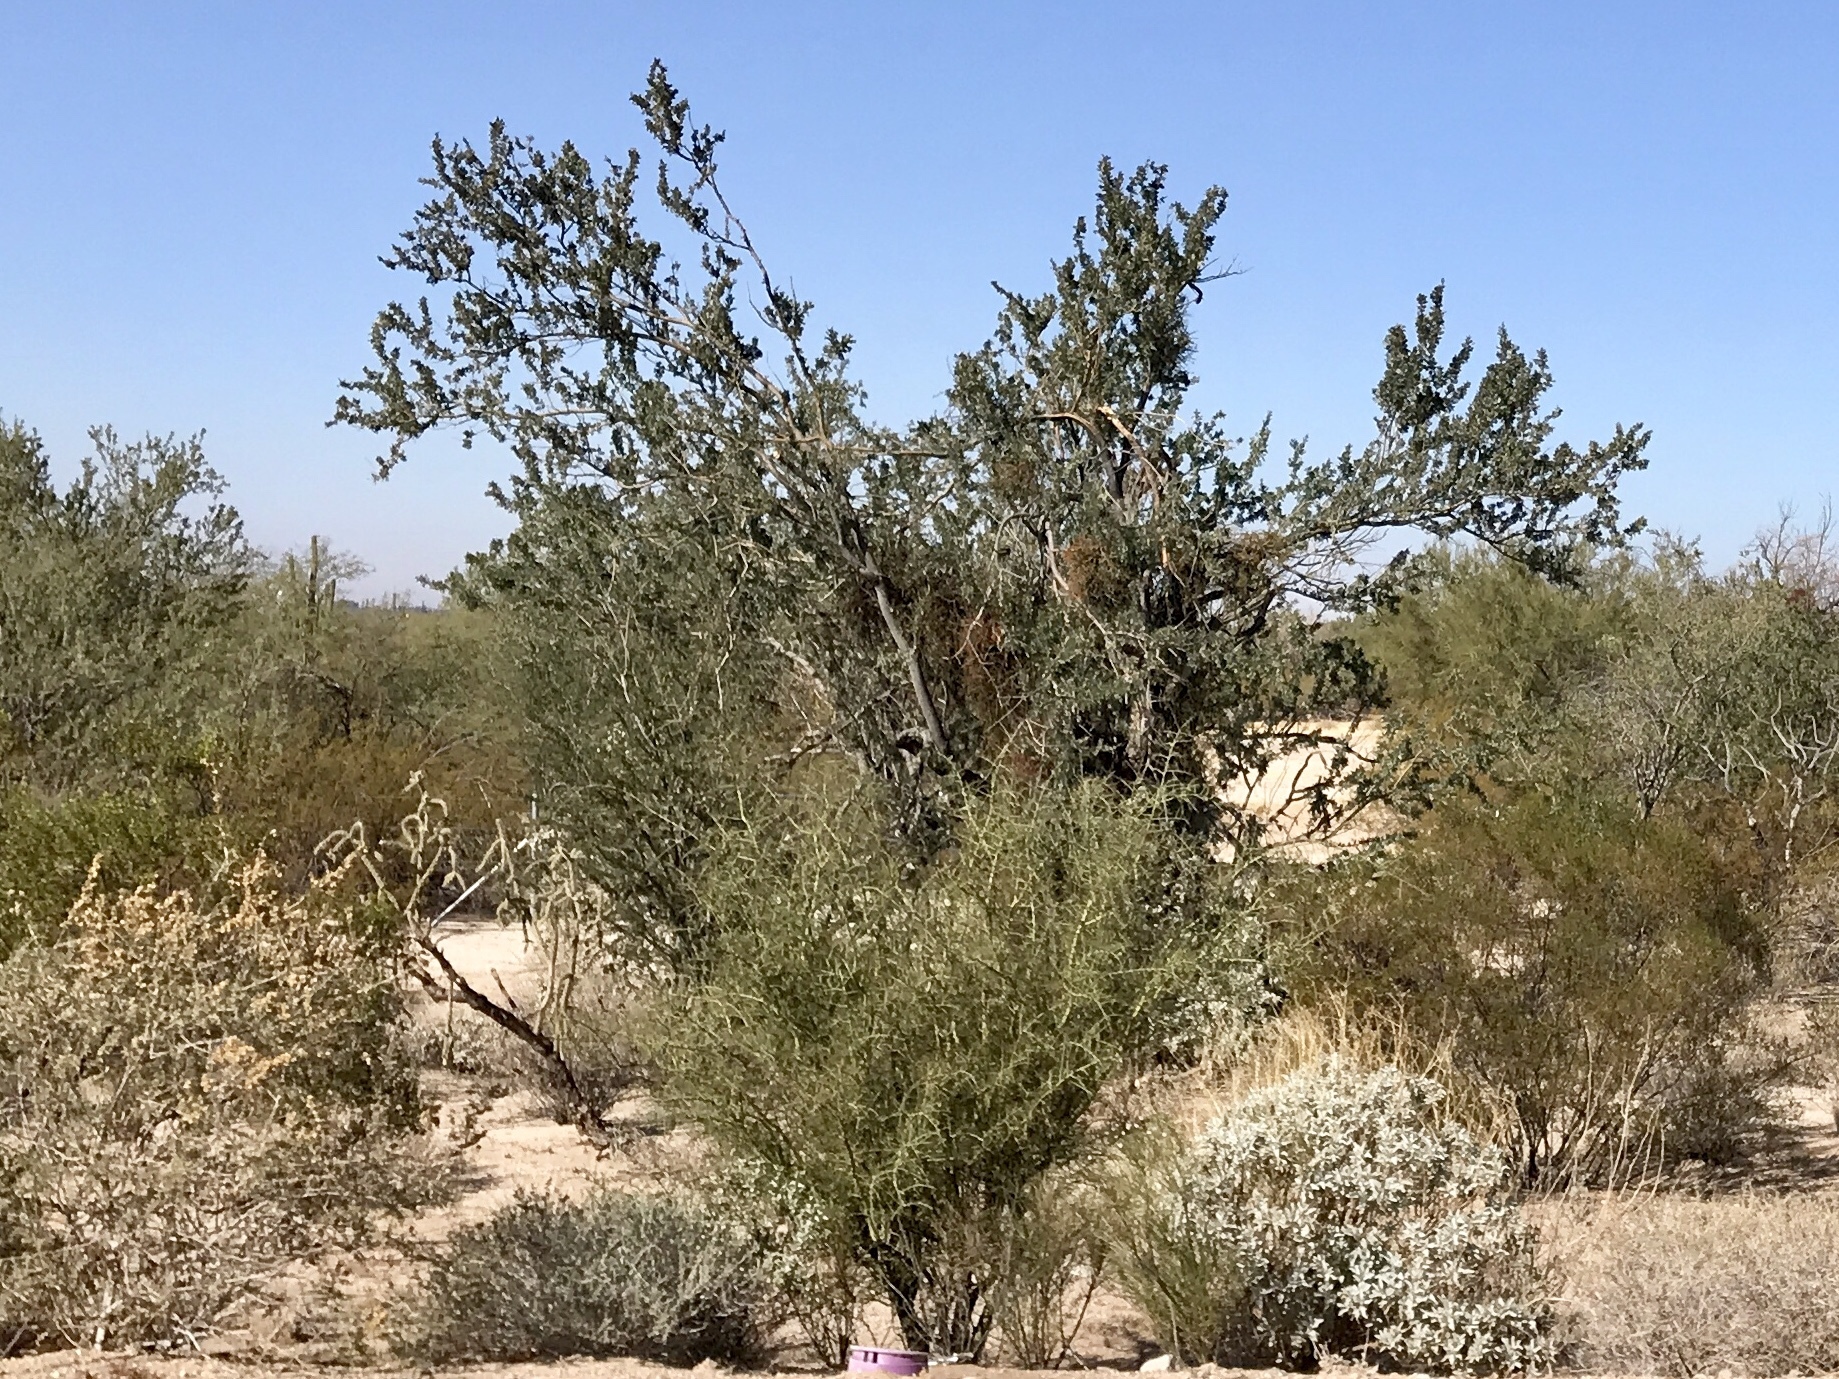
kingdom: Plantae
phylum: Tracheophyta
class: Magnoliopsida
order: Fabales
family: Fabaceae
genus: Olneya
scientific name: Olneya tesota
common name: Desert ironwood
